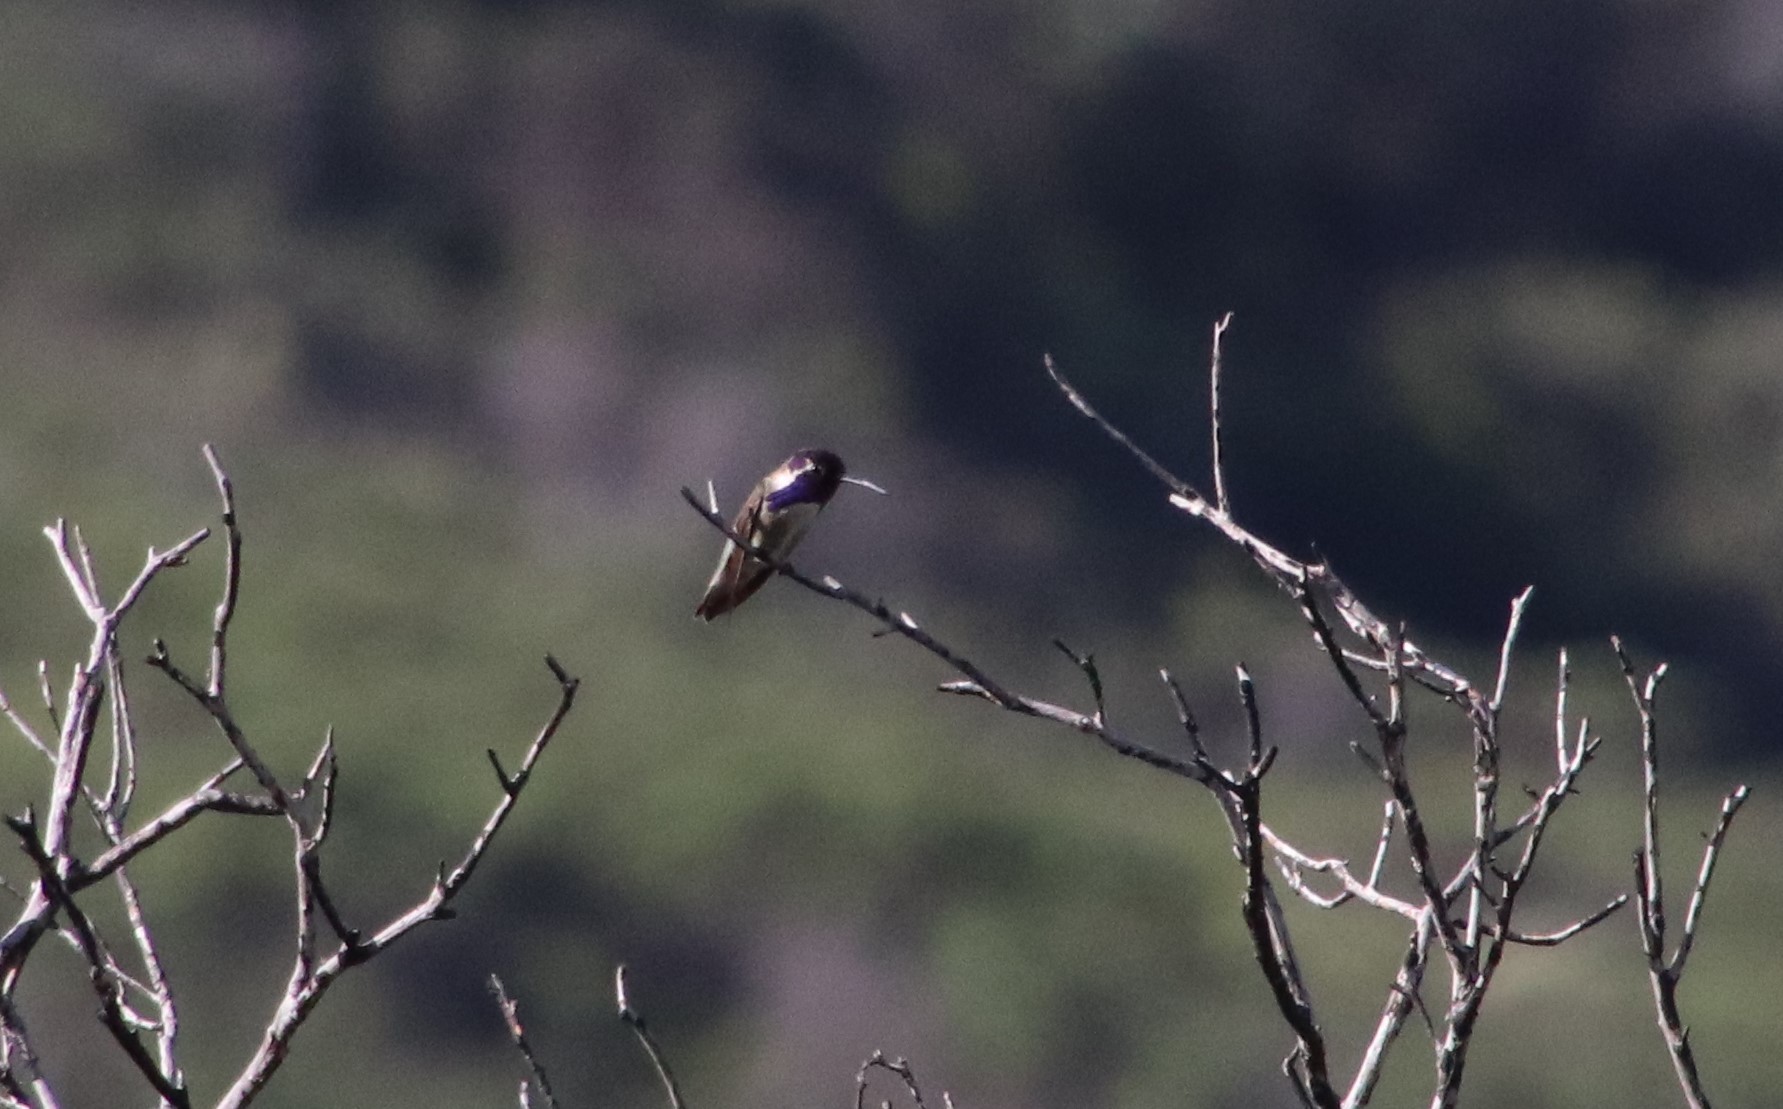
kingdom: Animalia
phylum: Chordata
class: Aves
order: Apodiformes
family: Trochilidae
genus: Calypte
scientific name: Calypte costae
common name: Costa's hummingbird
